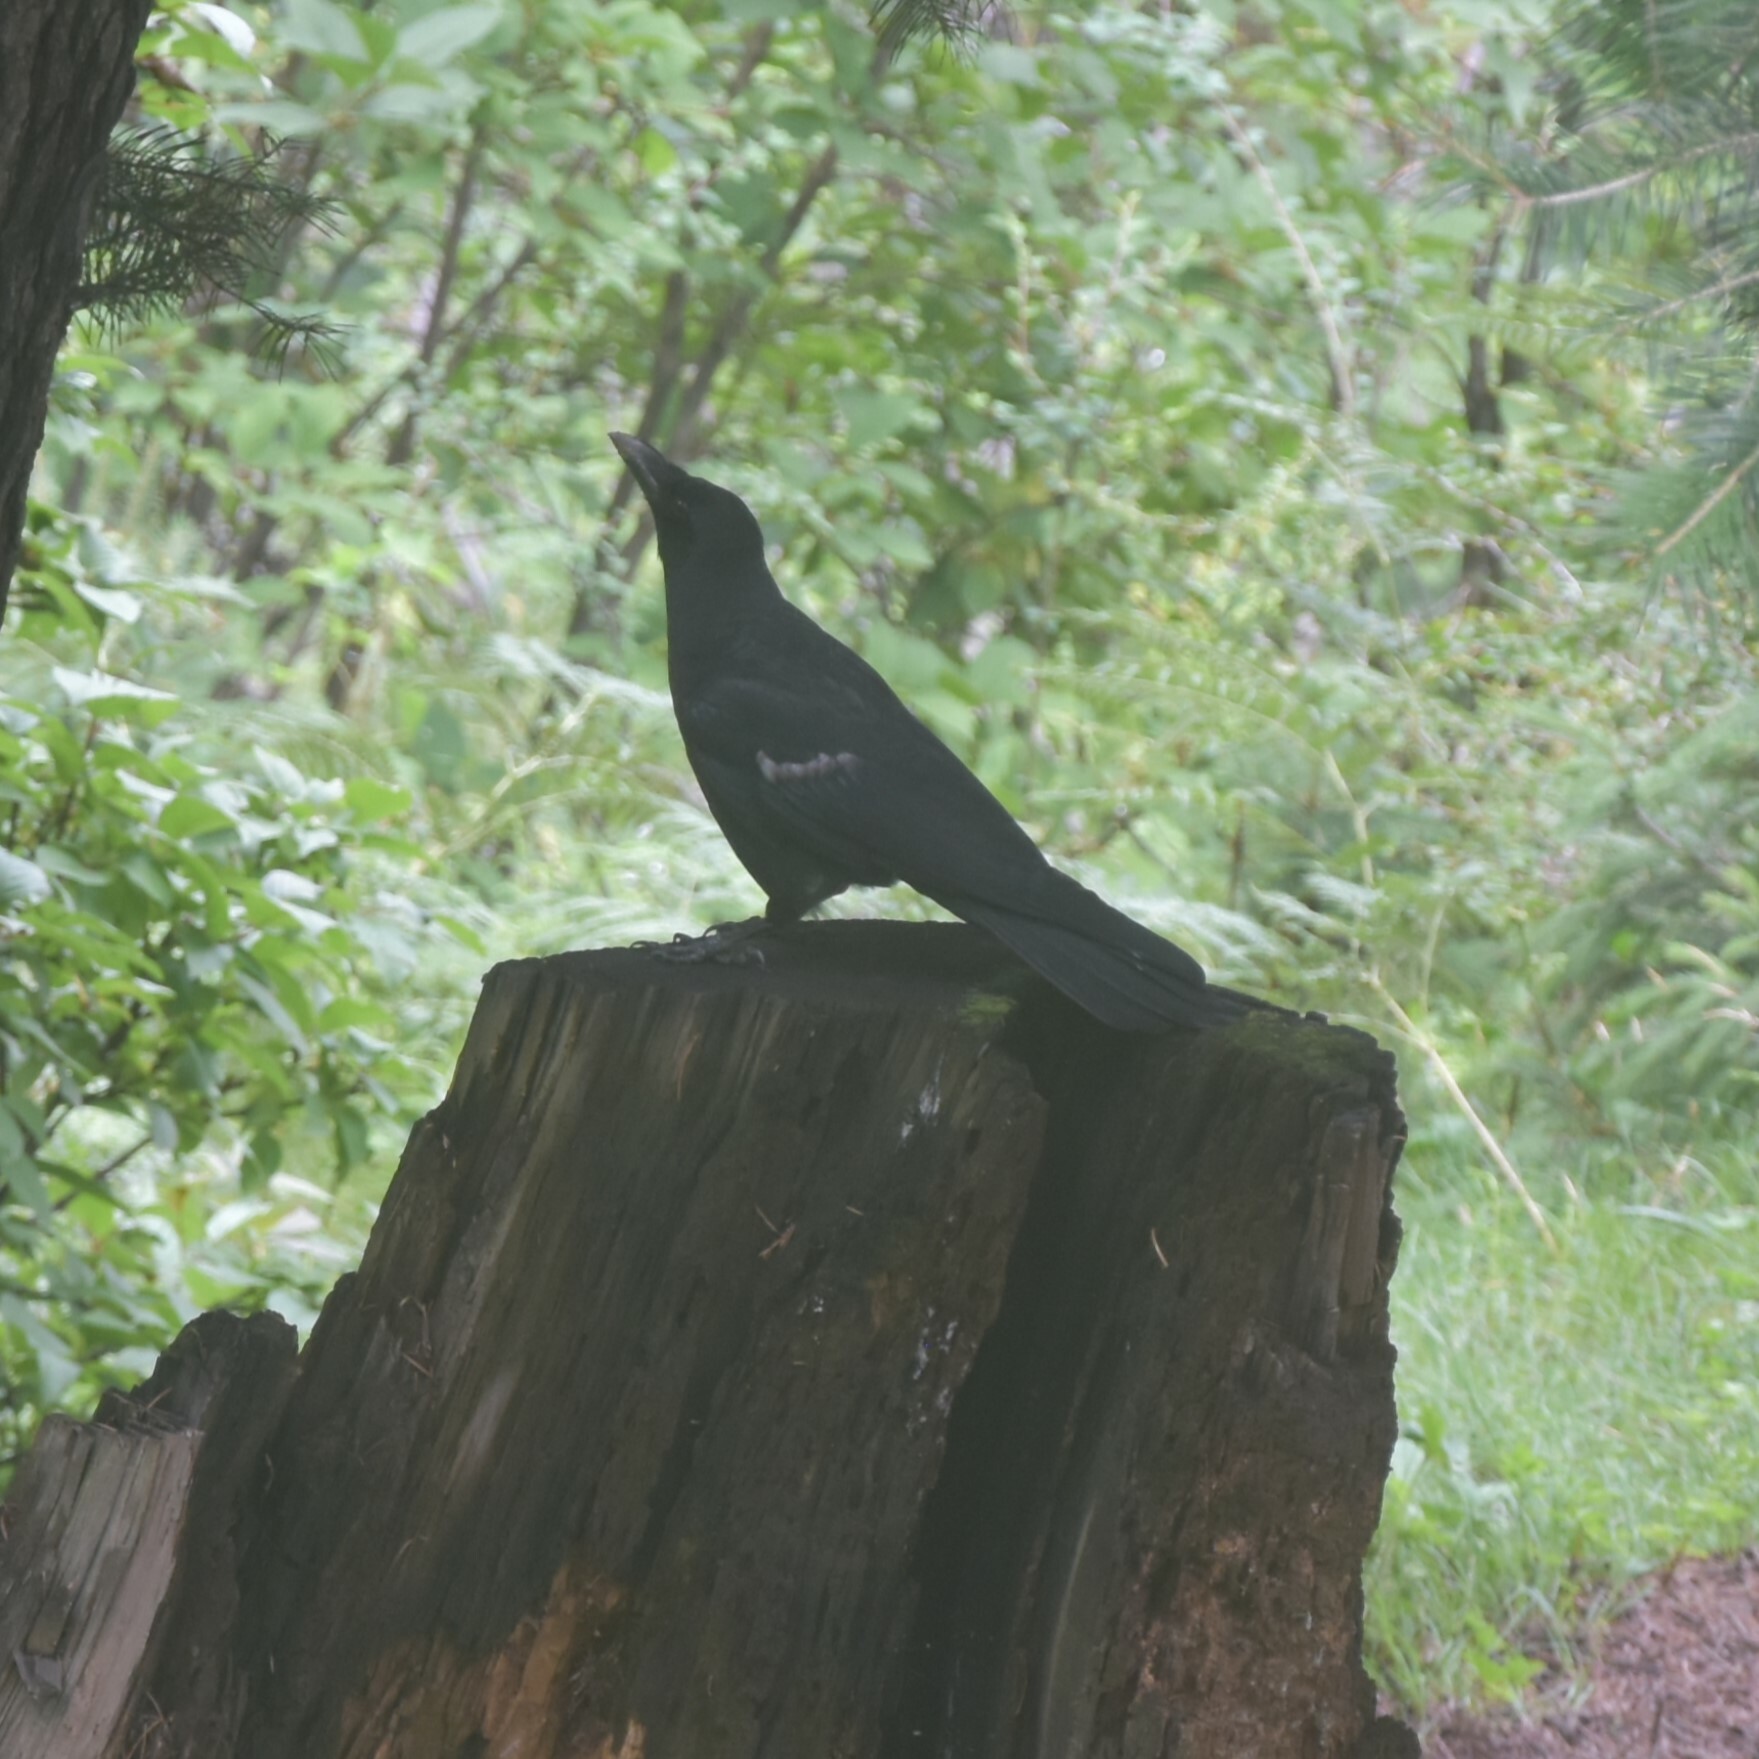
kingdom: Animalia
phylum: Chordata
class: Aves
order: Passeriformes
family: Corvidae
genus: Corvus
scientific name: Corvus macrorhynchos
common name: Large-billed crow
